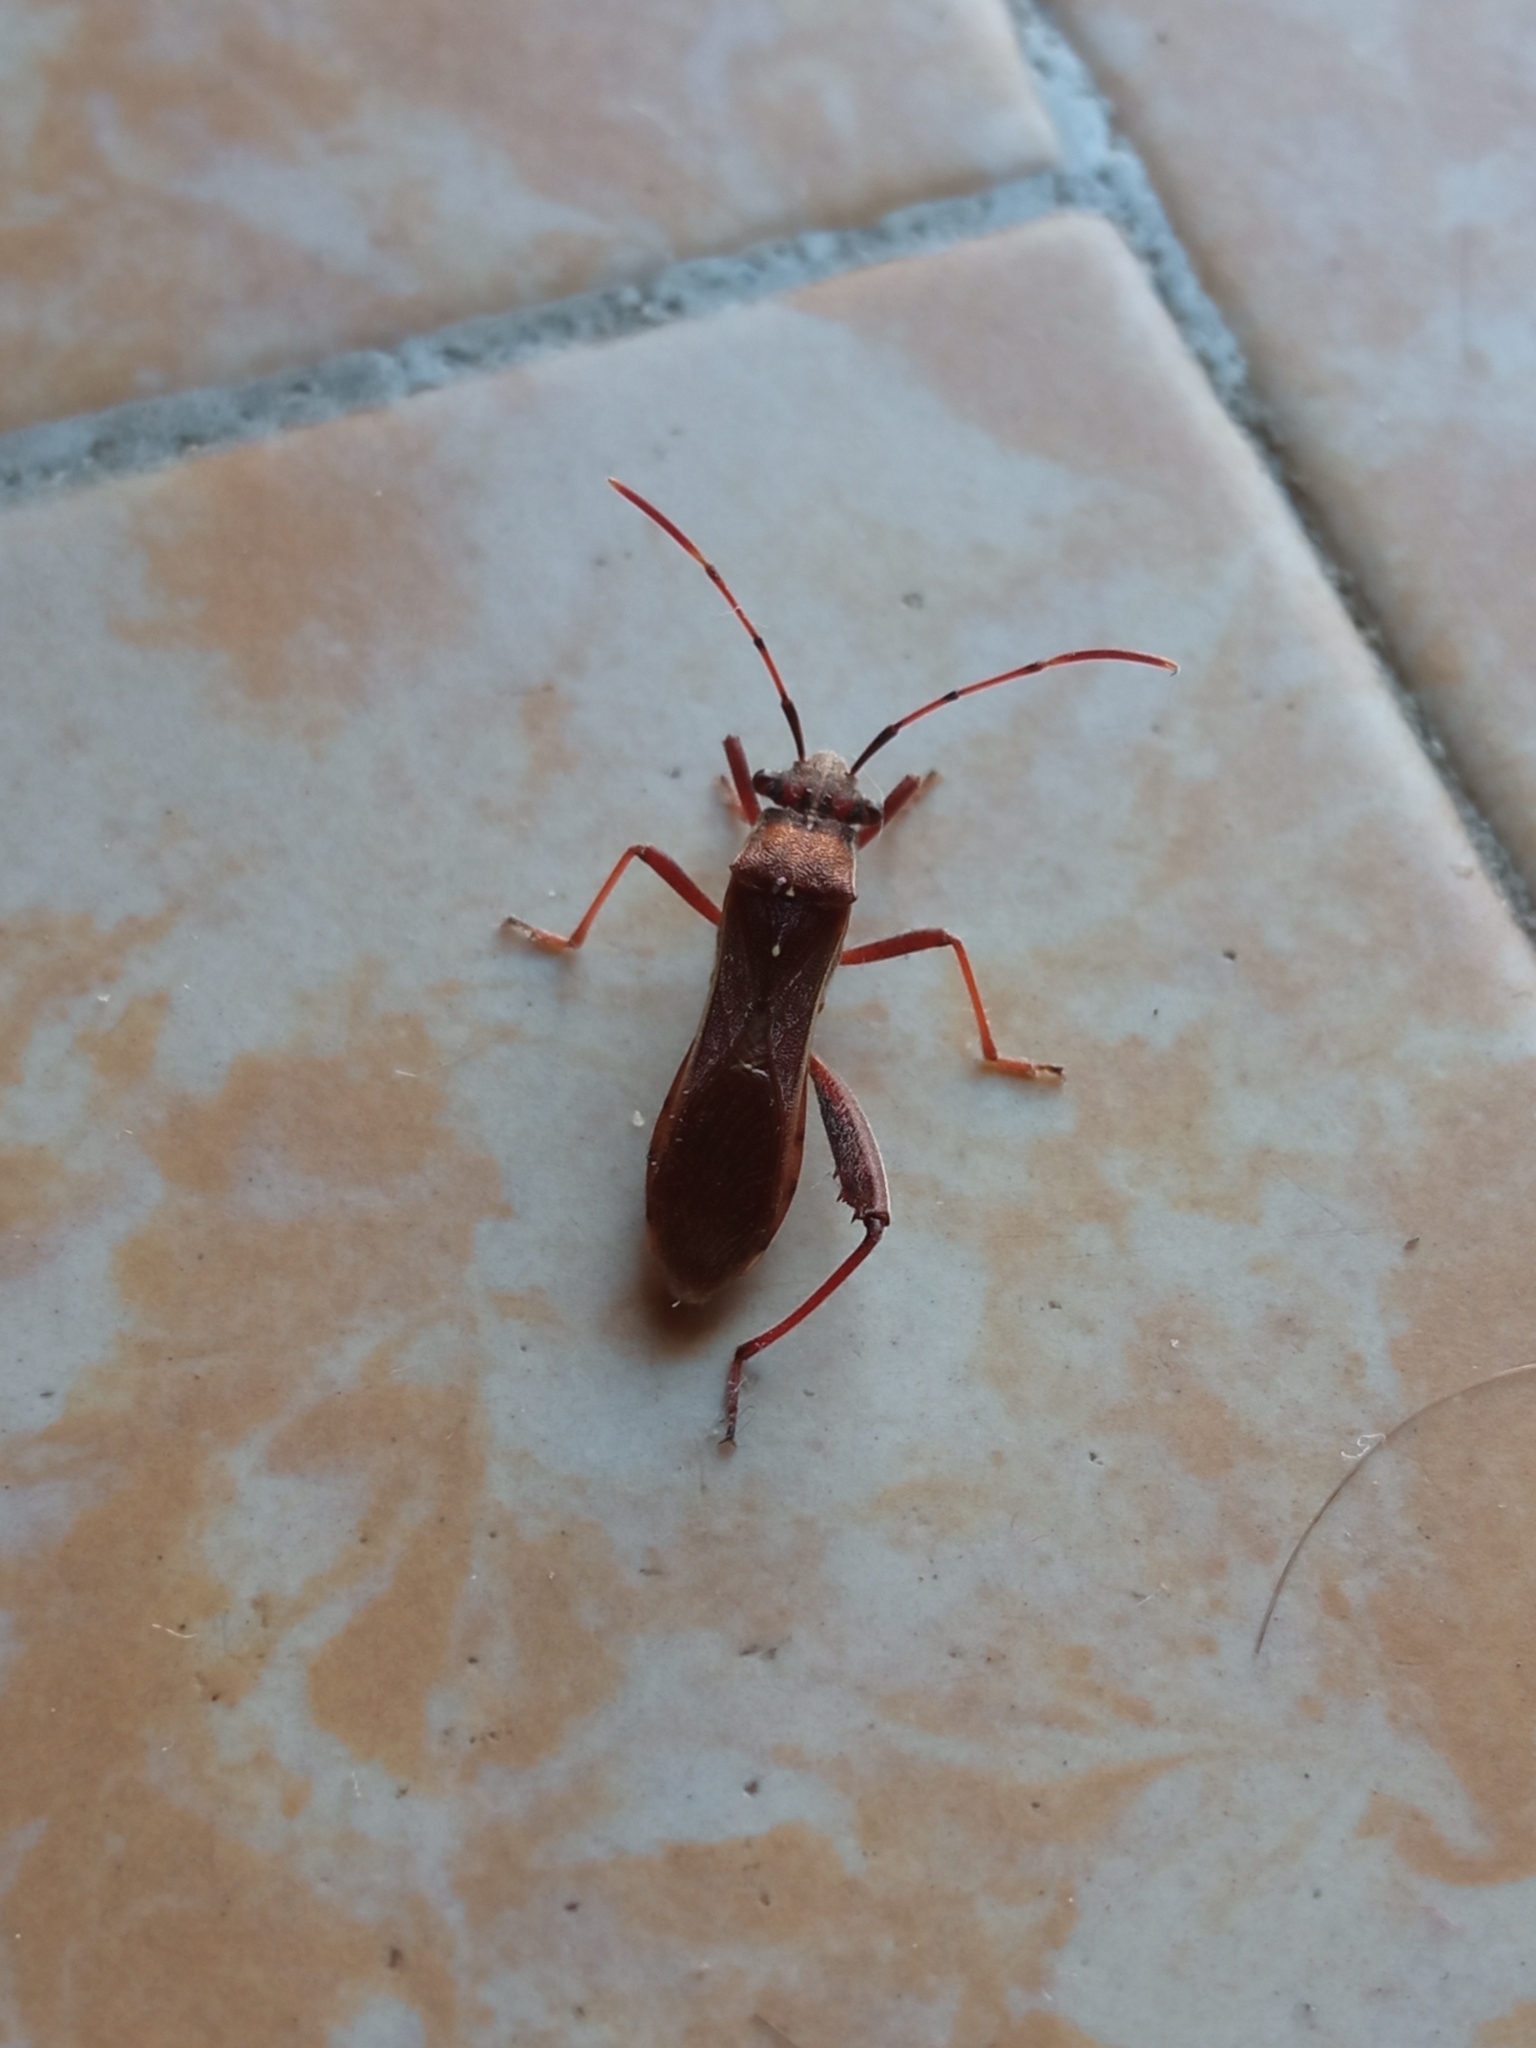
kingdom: Animalia
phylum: Arthropoda
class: Insecta
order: Hemiptera
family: Alydidae
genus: Camptopus
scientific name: Camptopus lateralis
